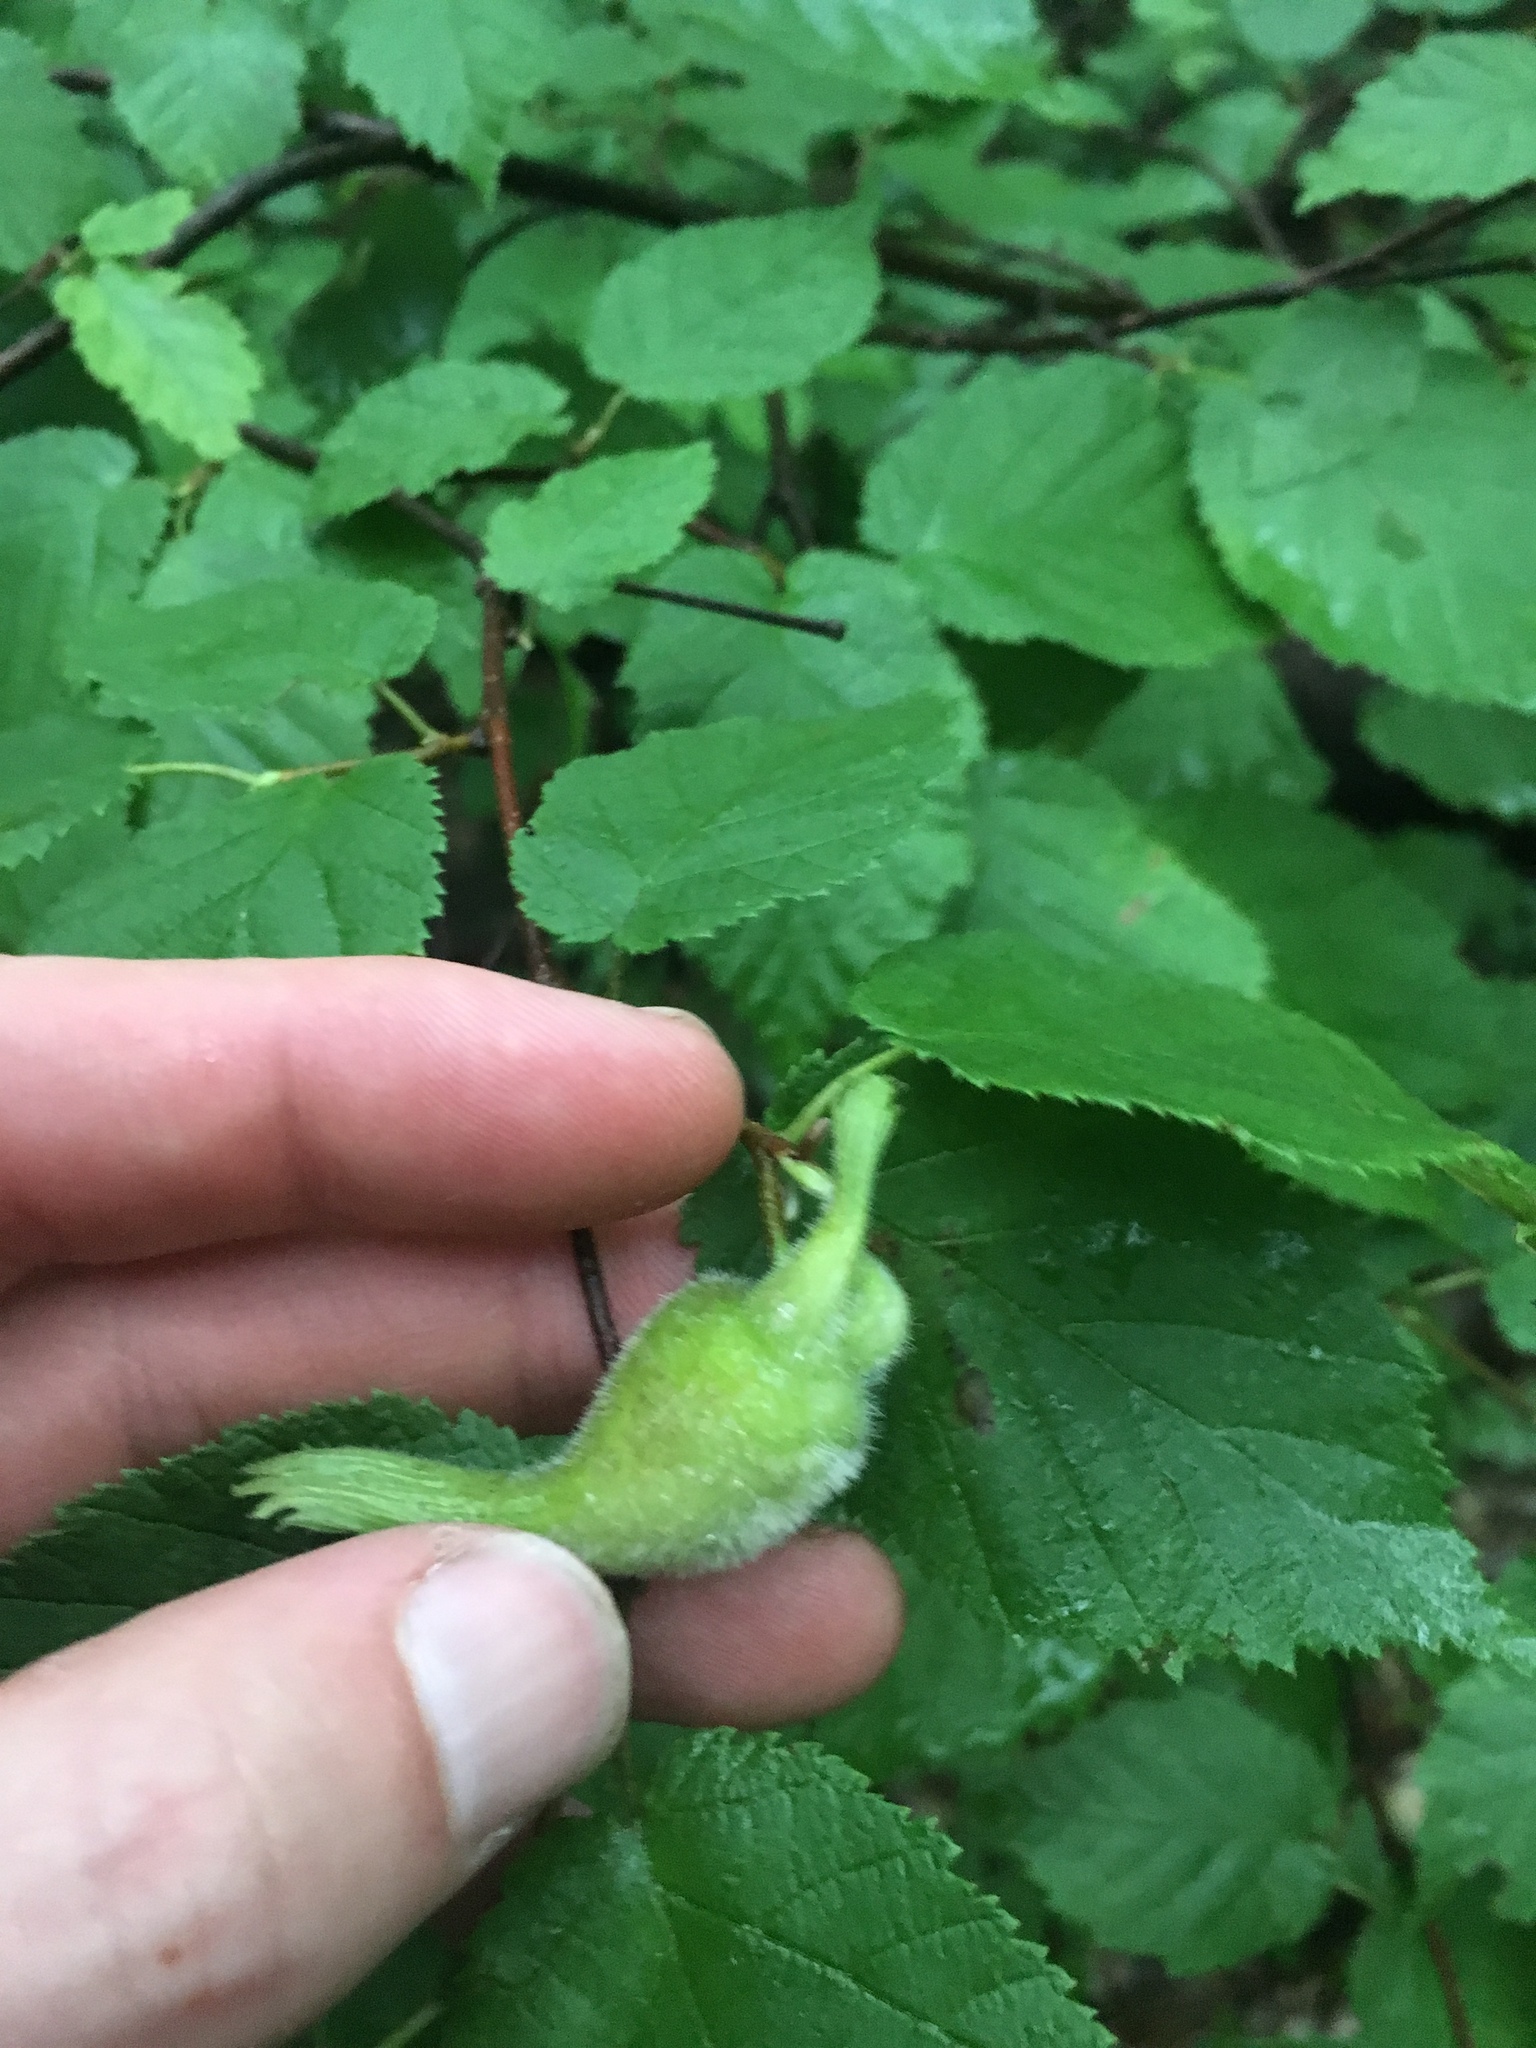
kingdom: Plantae
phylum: Tracheophyta
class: Magnoliopsida
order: Fagales
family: Betulaceae
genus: Corylus
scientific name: Corylus cornuta
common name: Beaked hazel
